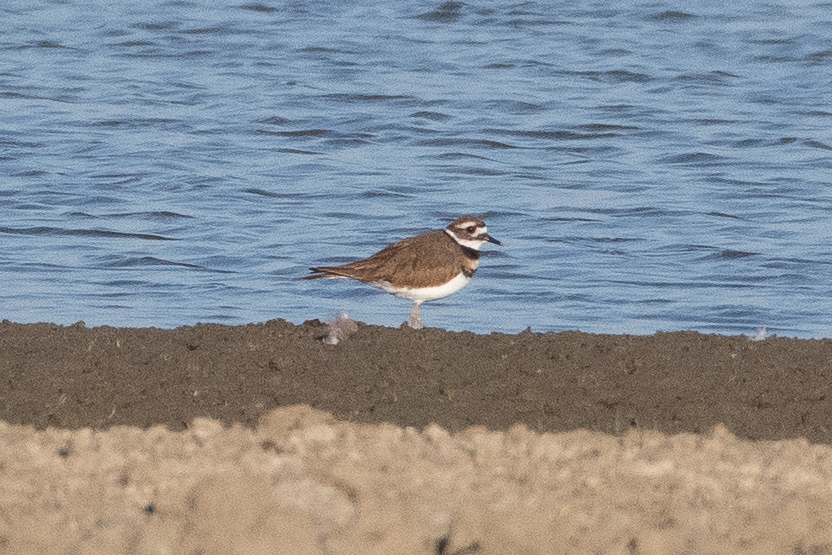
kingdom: Animalia
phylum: Chordata
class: Aves
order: Charadriiformes
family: Charadriidae
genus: Charadrius
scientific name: Charadrius vociferus
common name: Killdeer
